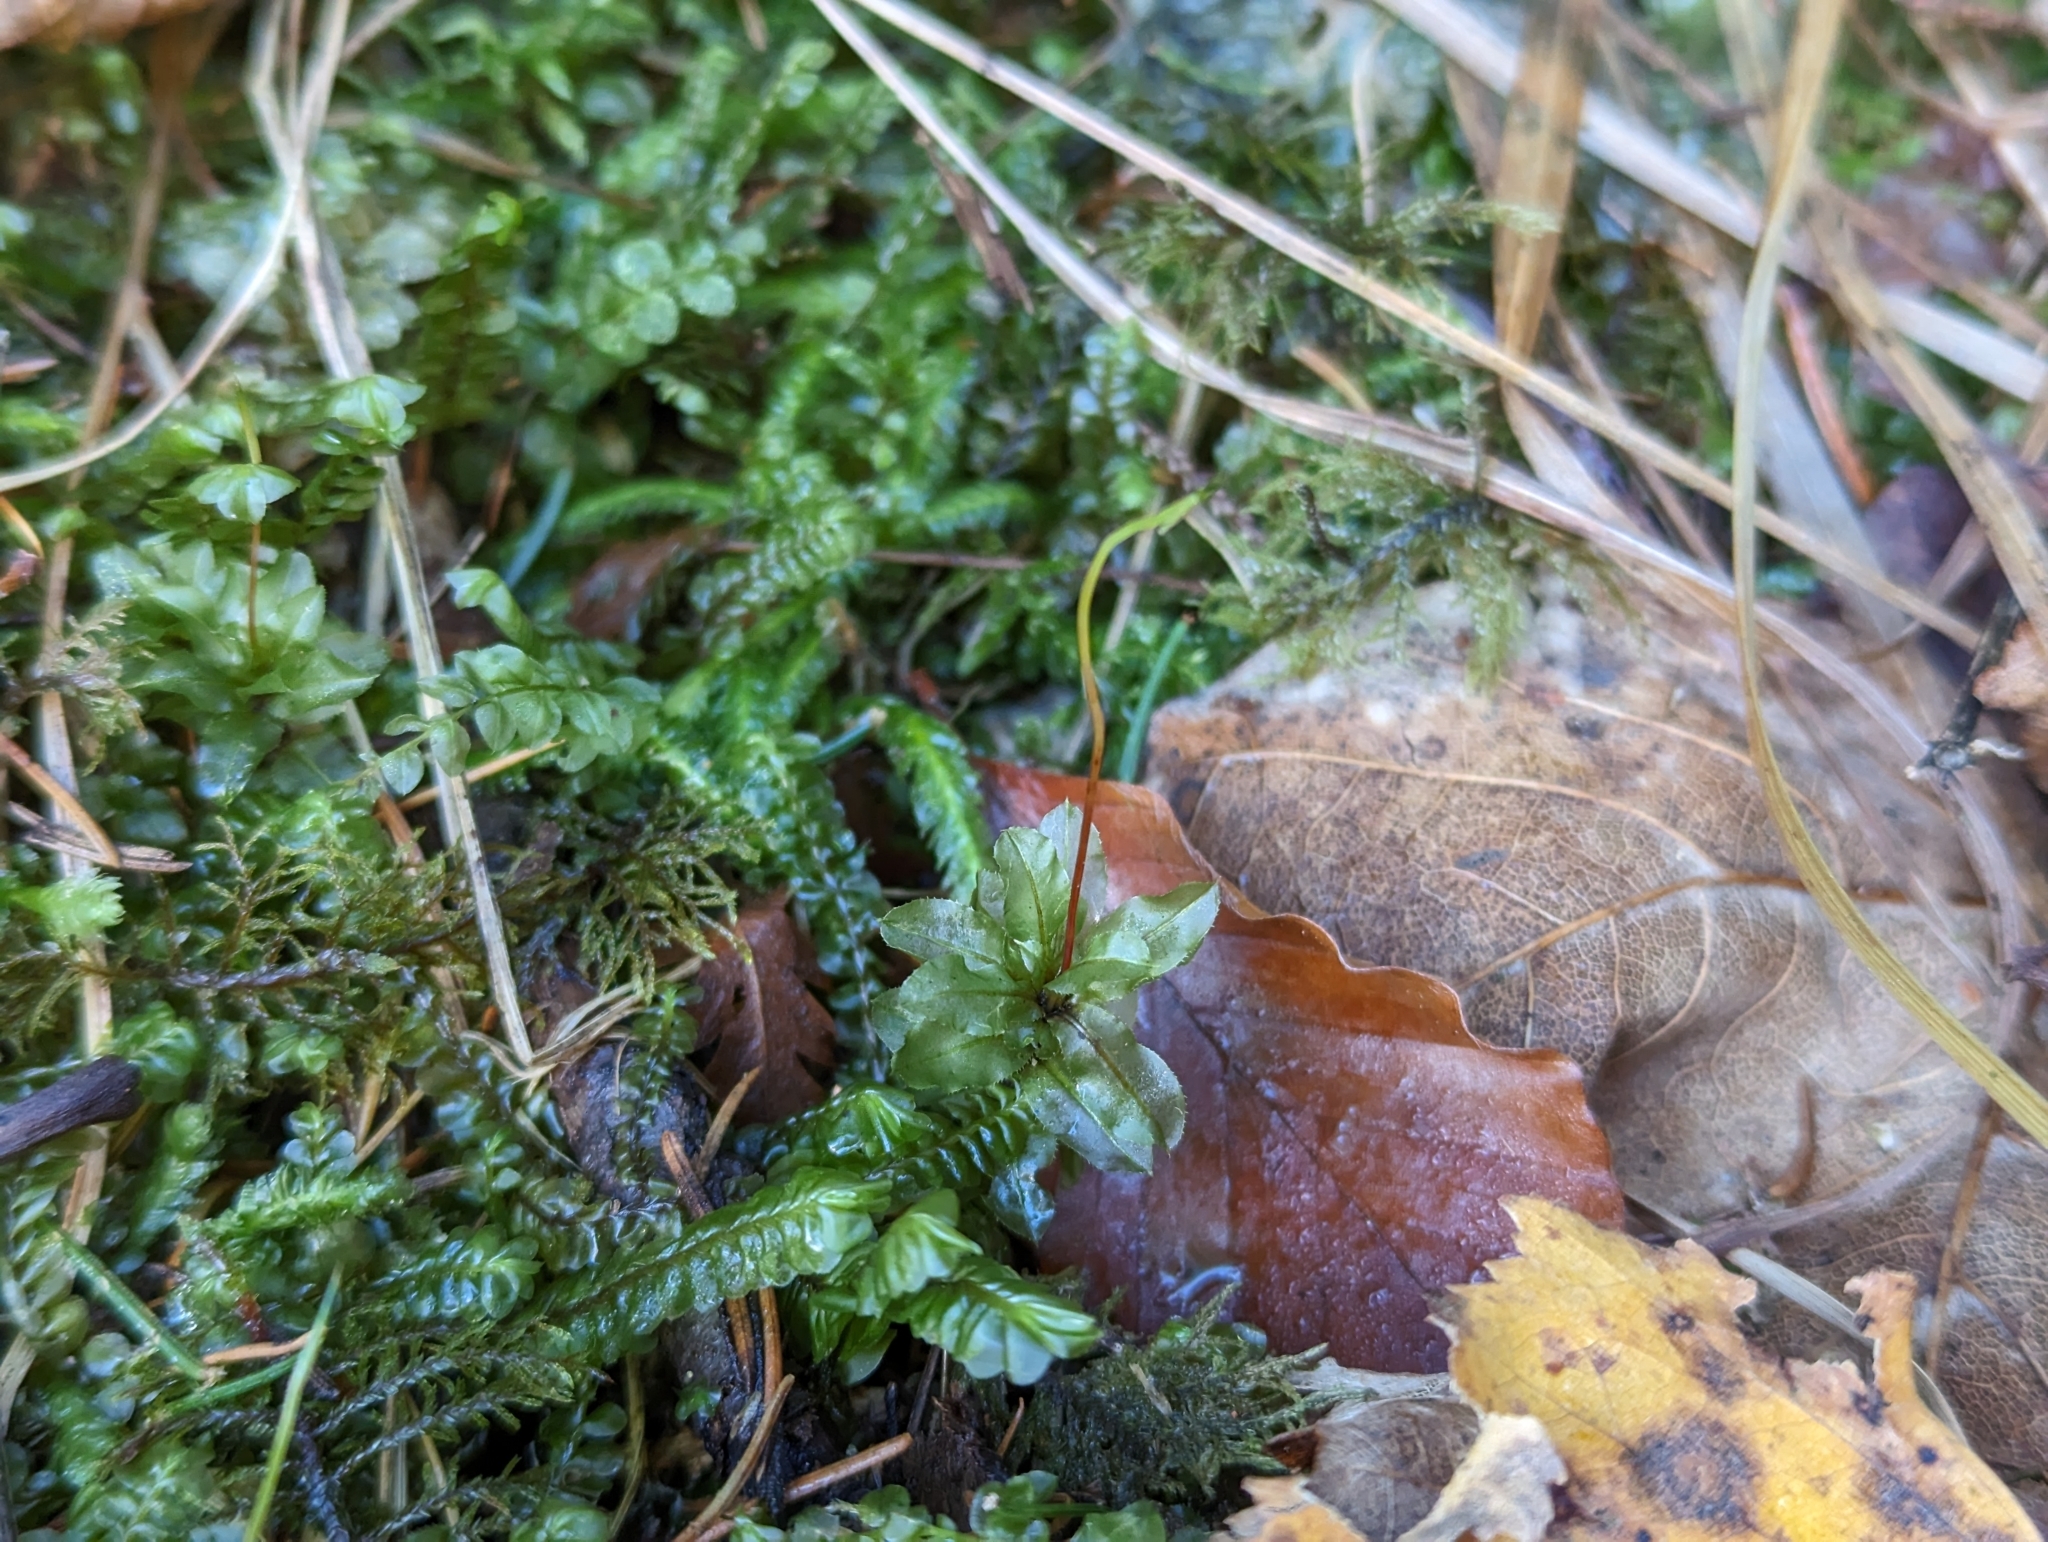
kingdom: Plantae
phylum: Bryophyta
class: Bryopsida
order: Bryales
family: Mniaceae
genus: Plagiomnium
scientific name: Plagiomnium affine
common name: Many-fruited thyme-moss
